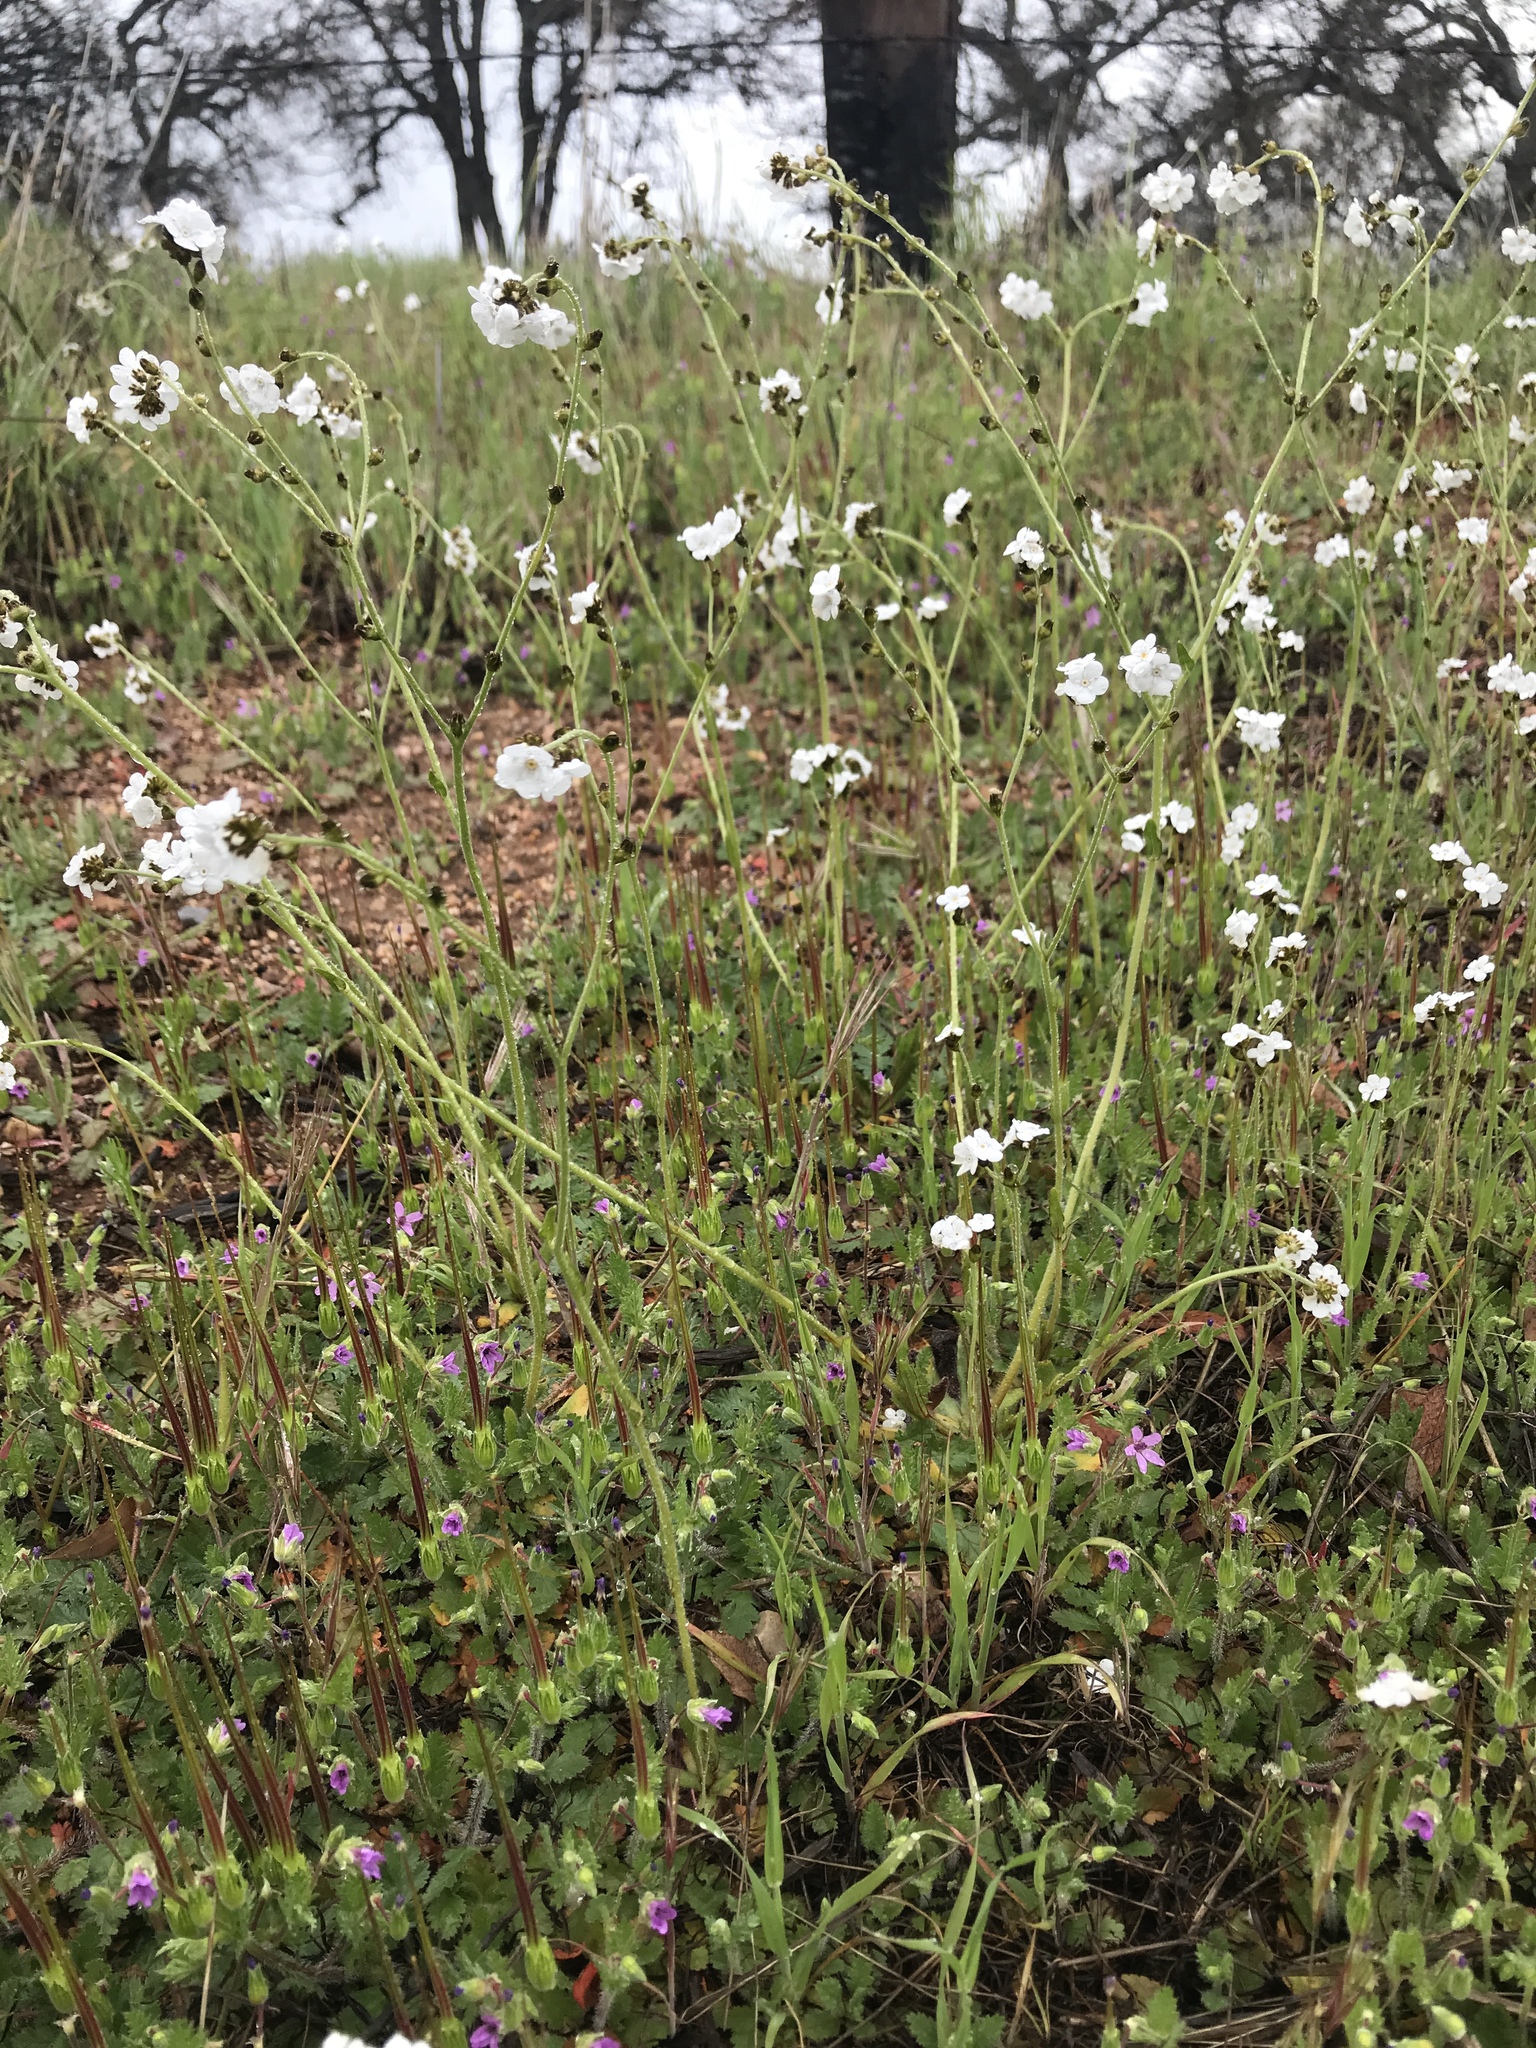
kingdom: Plantae
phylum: Tracheophyta
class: Magnoliopsida
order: Boraginales
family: Boraginaceae
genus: Plagiobothrys
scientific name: Plagiobothrys nothofulvus
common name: Popcorn-flower
